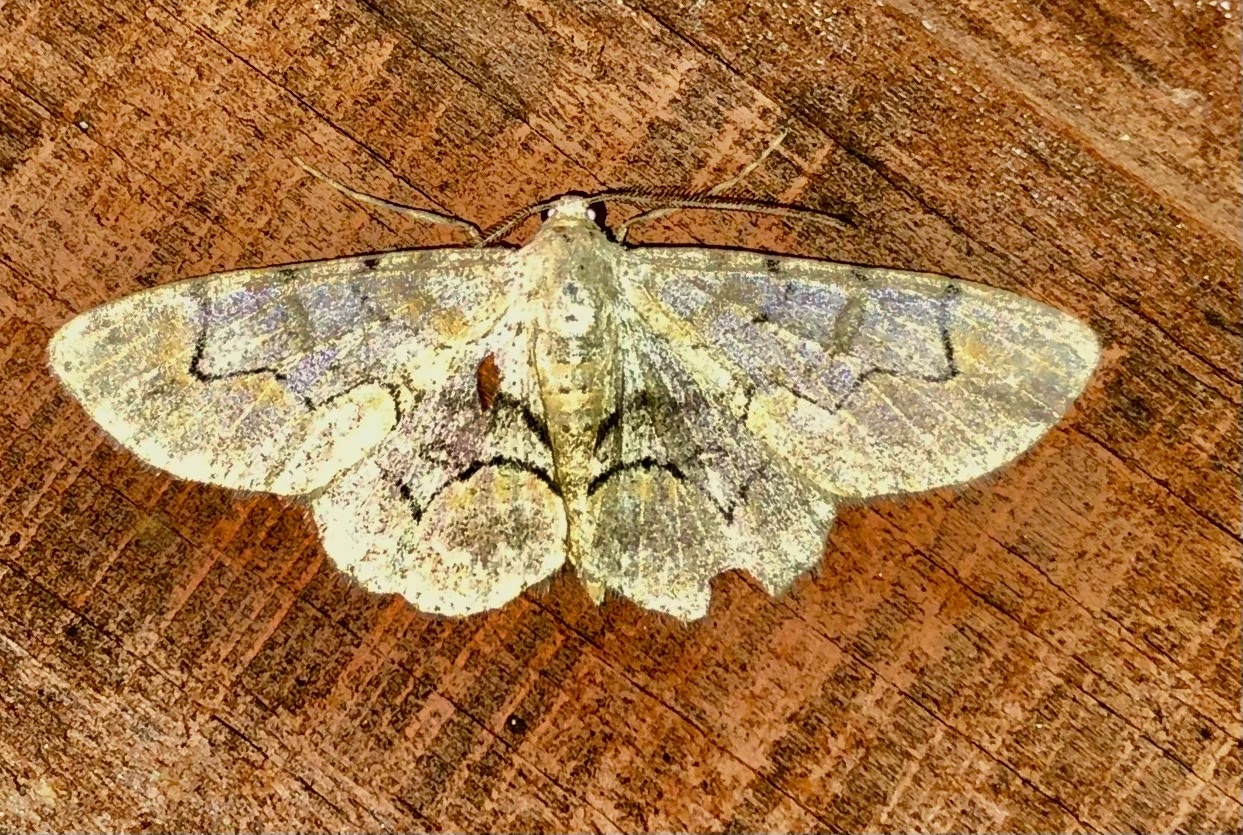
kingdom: Animalia
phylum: Arthropoda
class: Insecta
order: Lepidoptera
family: Geometridae
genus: Iridopsis
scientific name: Iridopsis larvaria
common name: Bent-line gray
